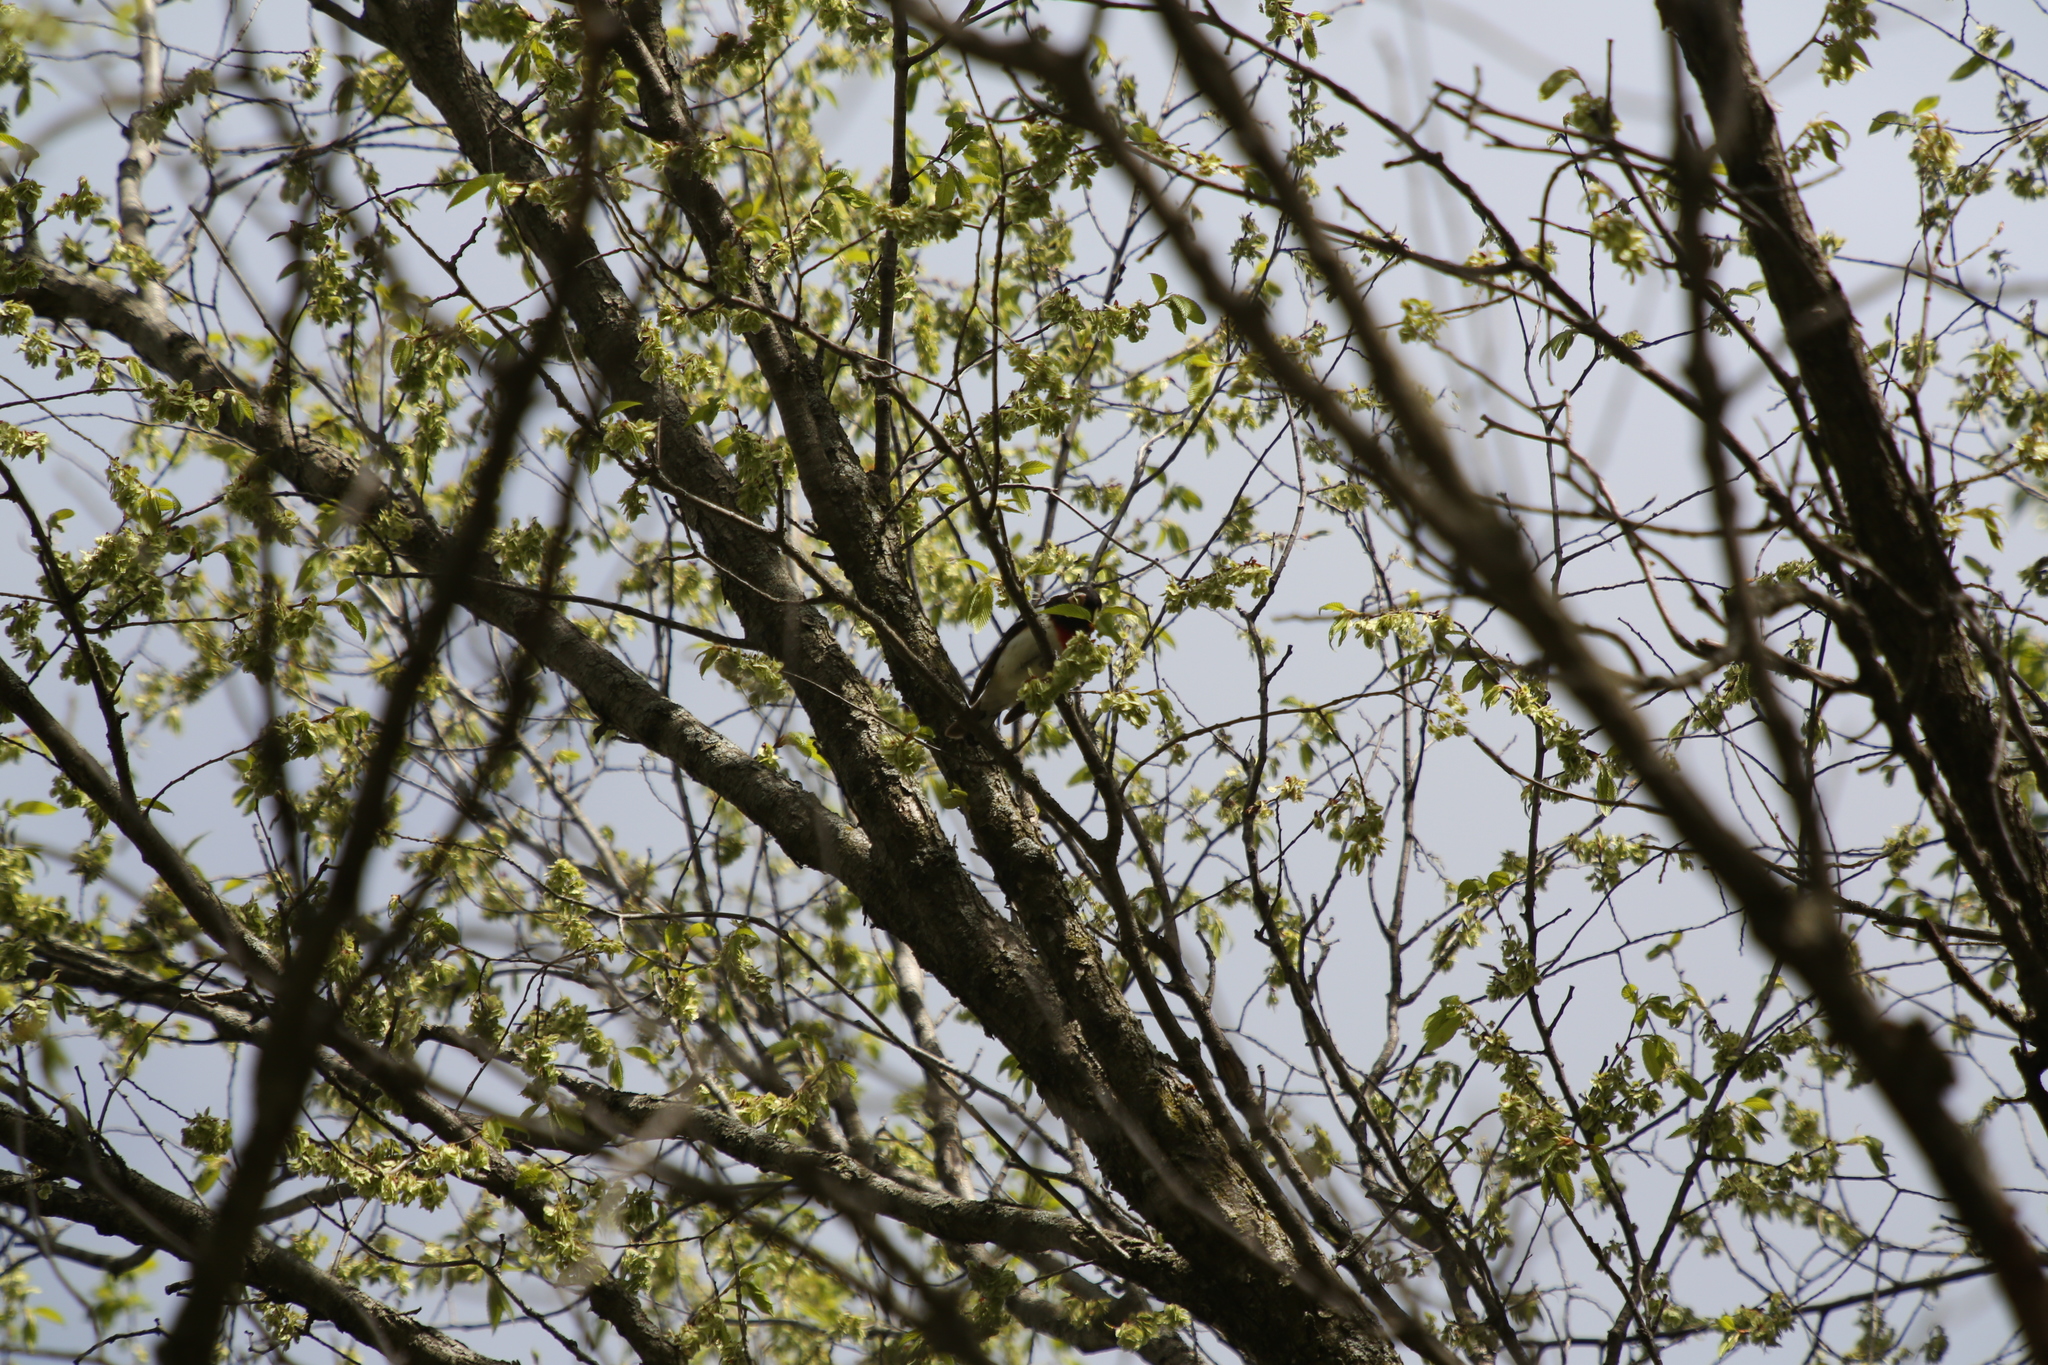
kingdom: Animalia
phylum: Chordata
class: Aves
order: Passeriformes
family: Cardinalidae
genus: Pheucticus
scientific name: Pheucticus ludovicianus
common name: Rose-breasted grosbeak
